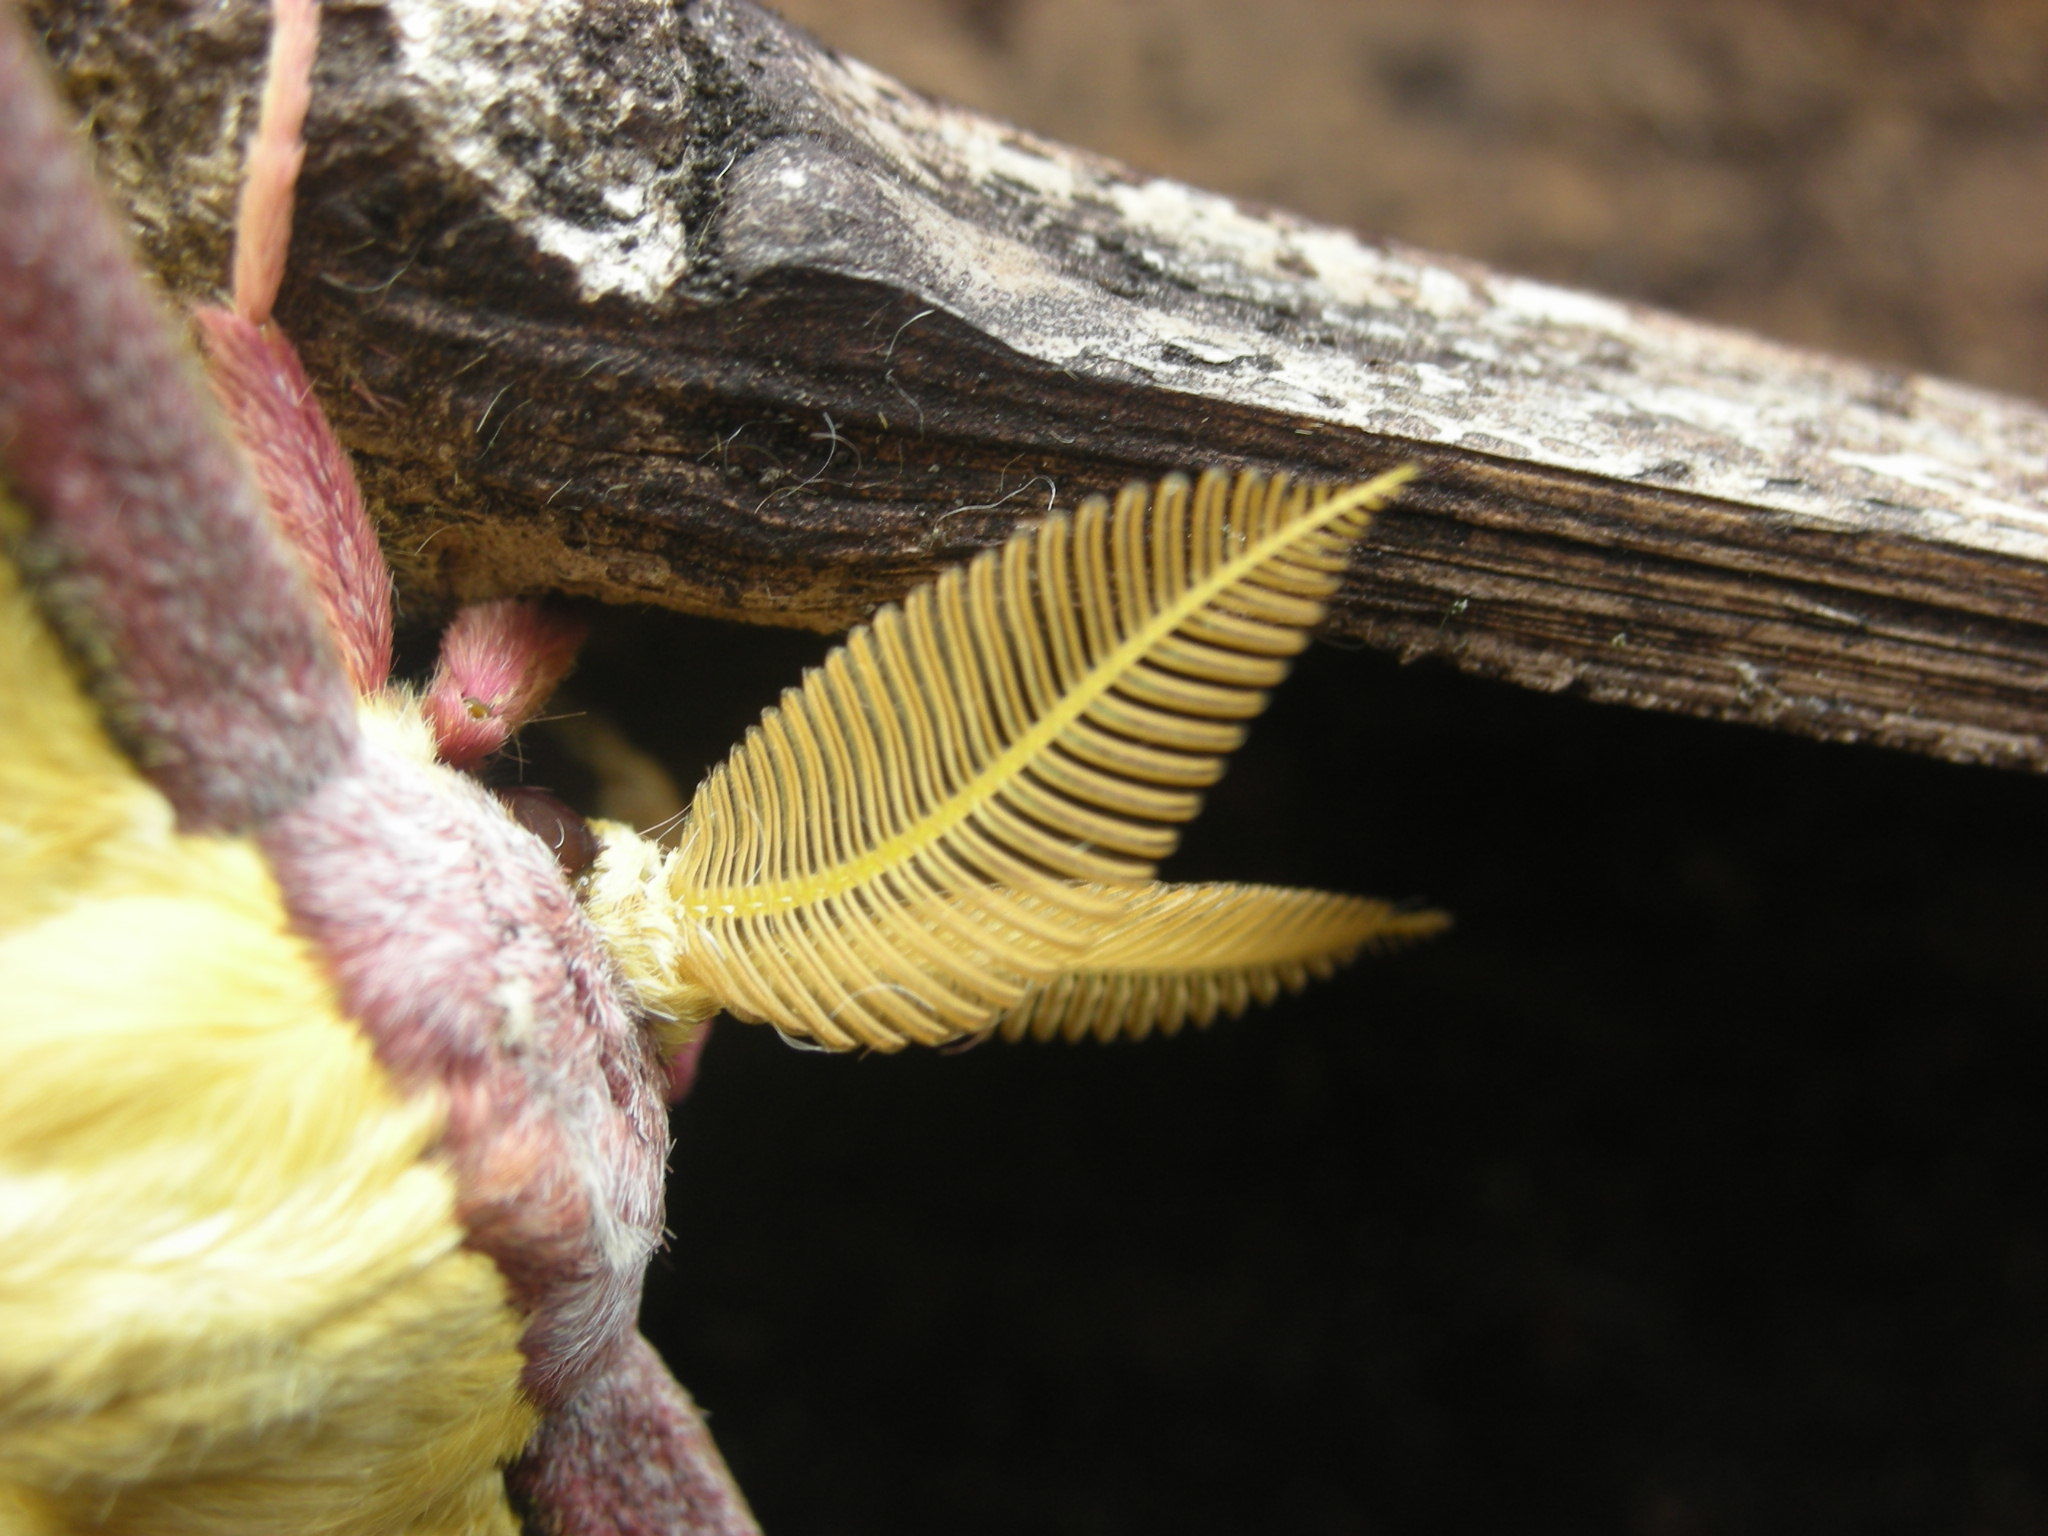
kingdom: Animalia
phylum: Arthropoda
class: Insecta
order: Lepidoptera
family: Saturniidae
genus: Actias
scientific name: Actias sinensis
